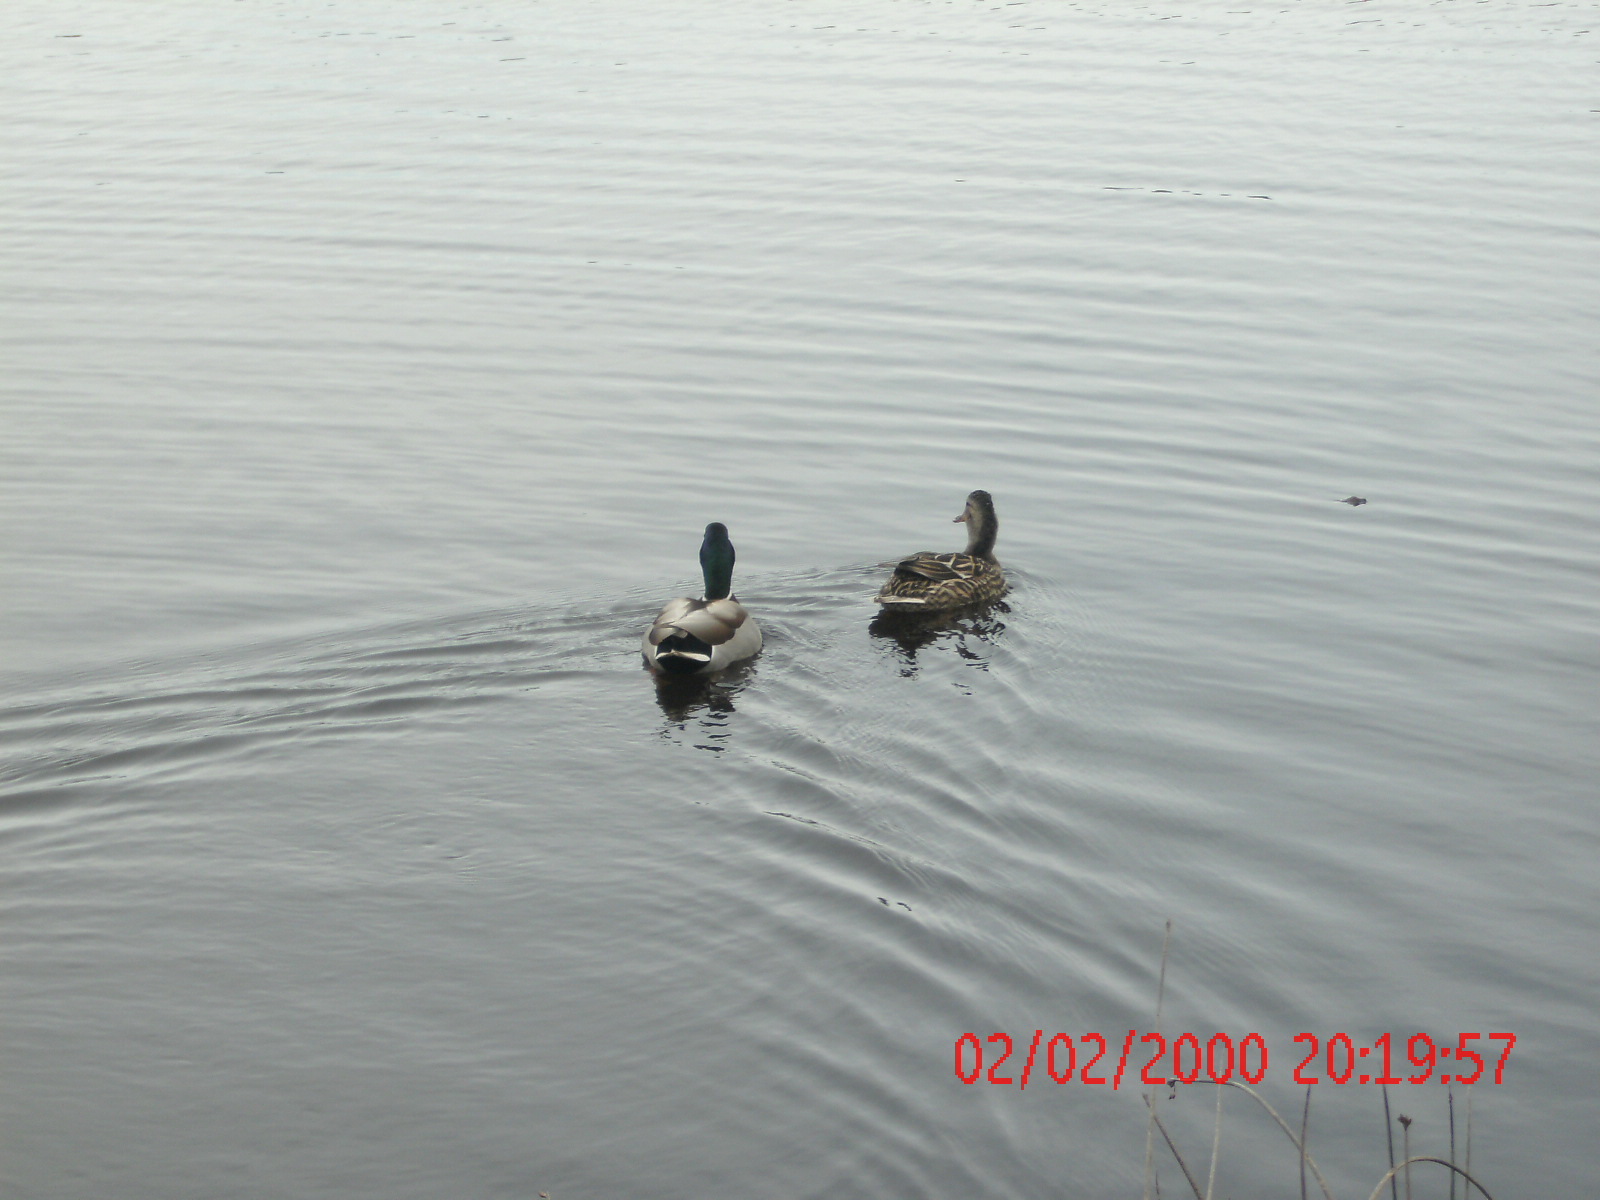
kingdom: Animalia
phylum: Chordata
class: Aves
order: Anseriformes
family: Anatidae
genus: Anas
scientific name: Anas platyrhynchos
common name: Mallard
